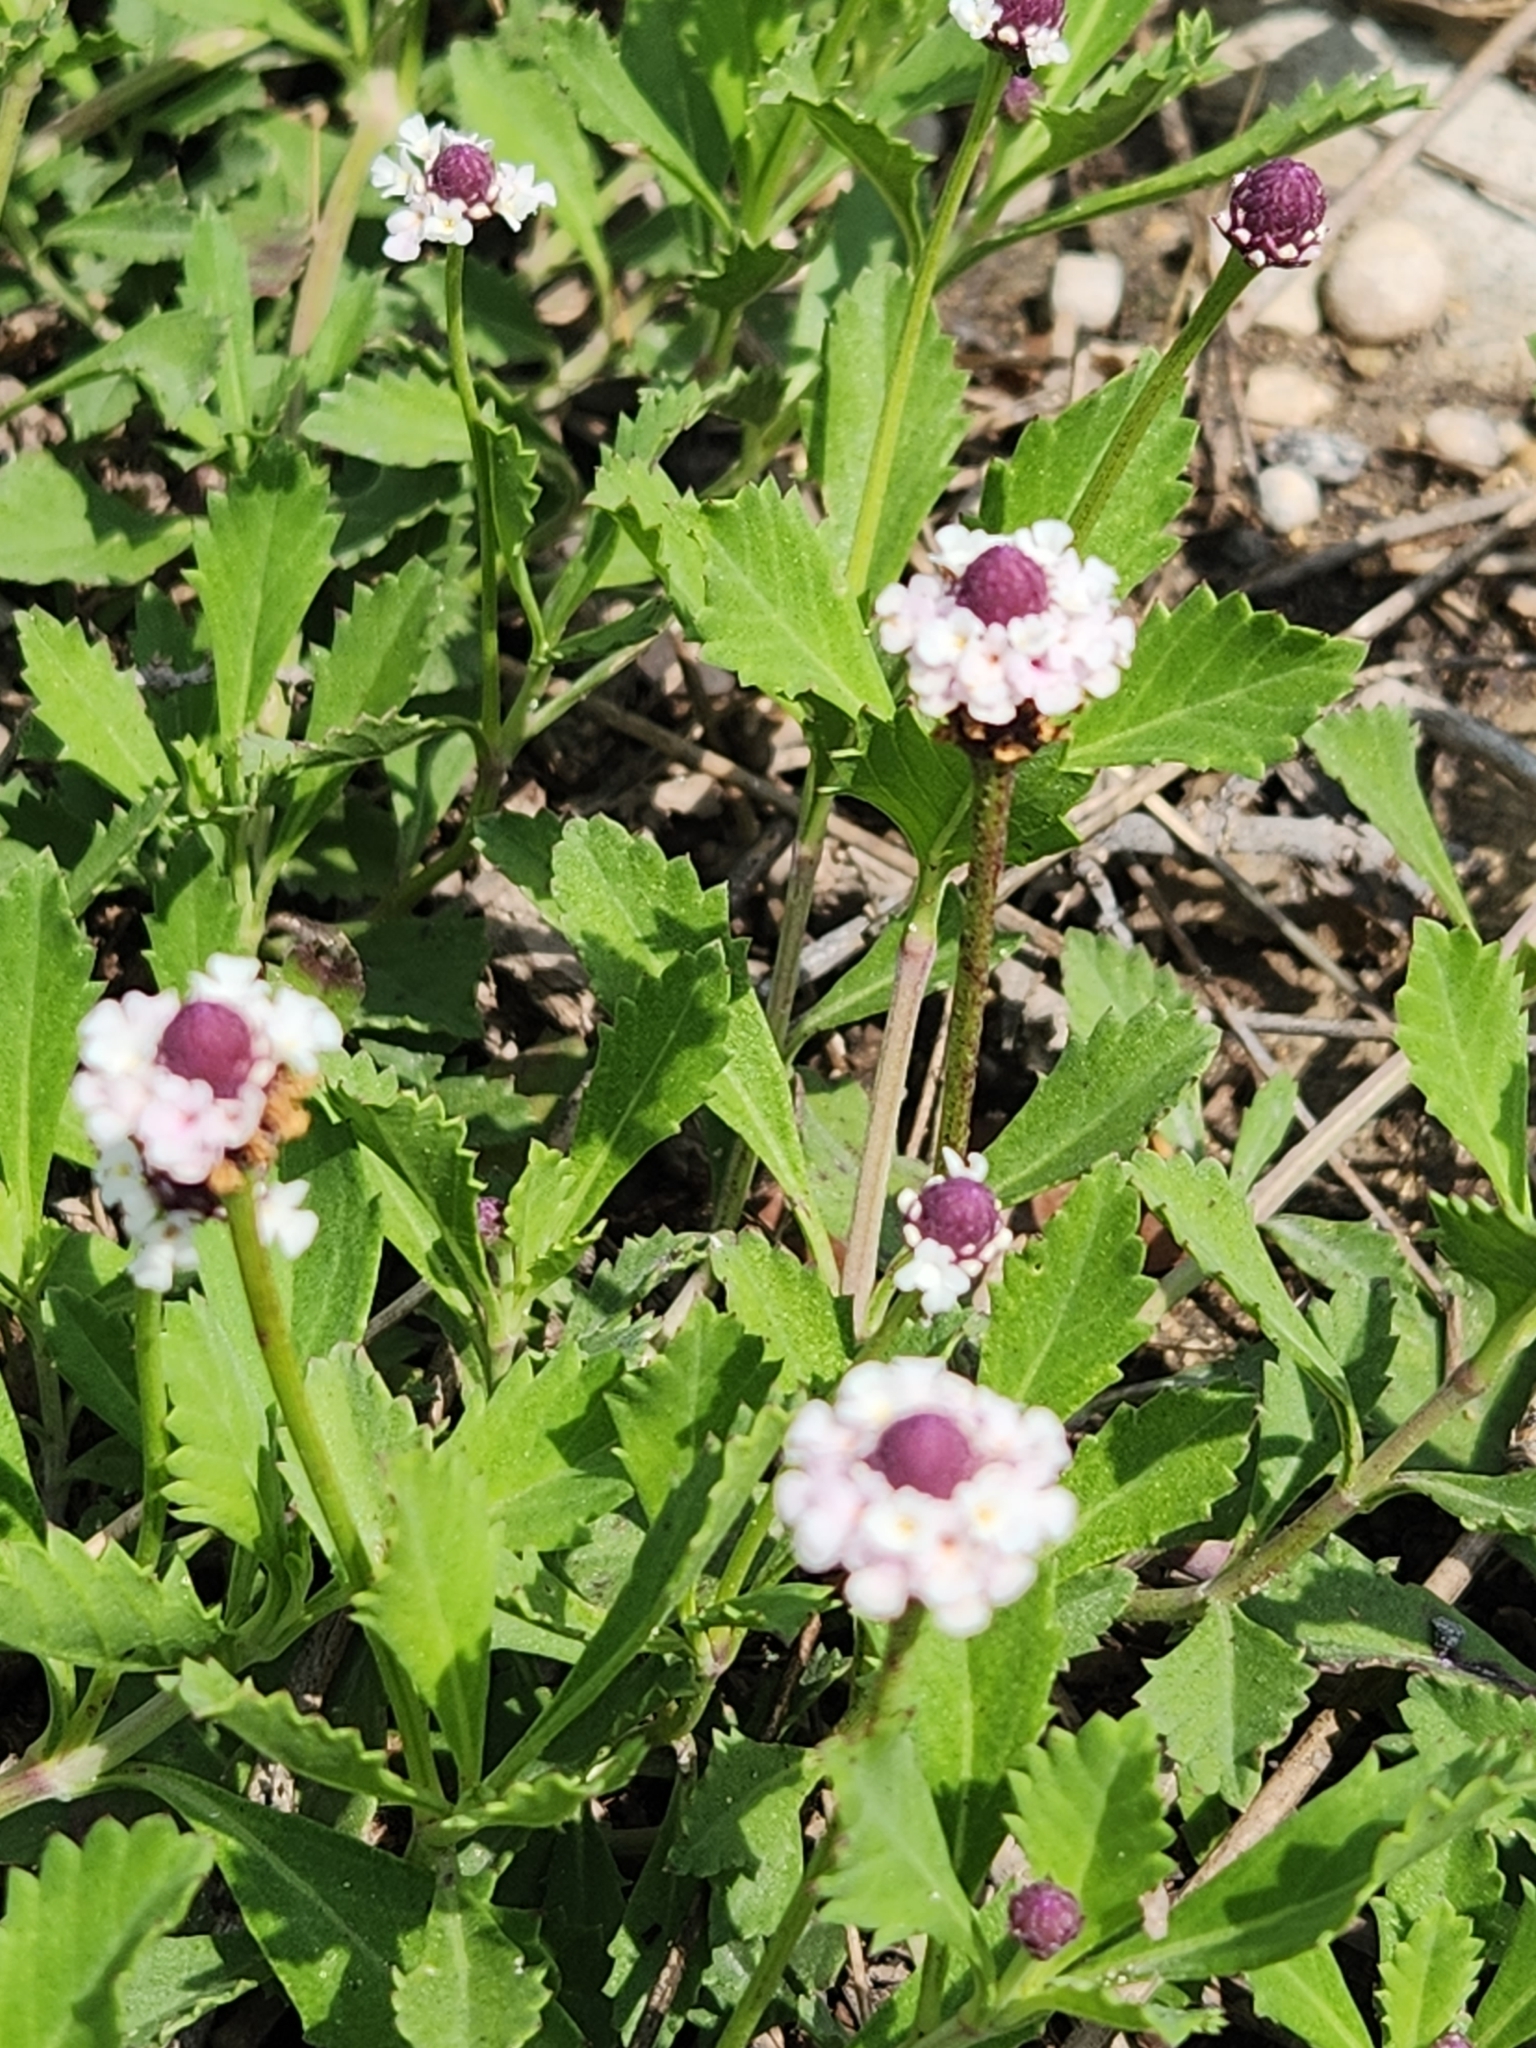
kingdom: Plantae
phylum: Tracheophyta
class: Magnoliopsida
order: Lamiales
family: Verbenaceae
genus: Phyla
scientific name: Phyla nodiflora
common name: Frogfruit
